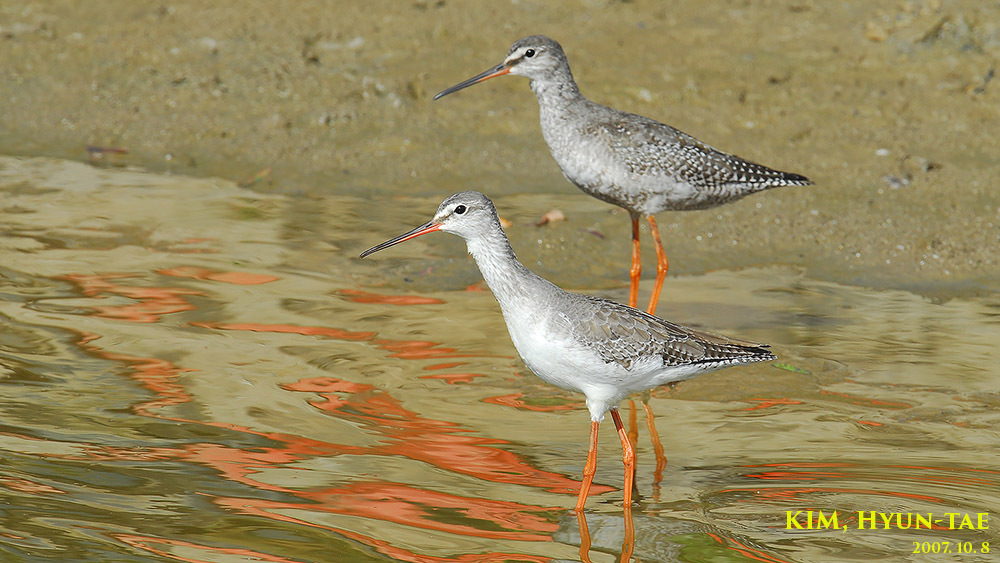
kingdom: Animalia
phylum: Chordata
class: Aves
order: Charadriiformes
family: Scolopacidae
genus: Tringa
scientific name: Tringa erythropus
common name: Spotted redshank
